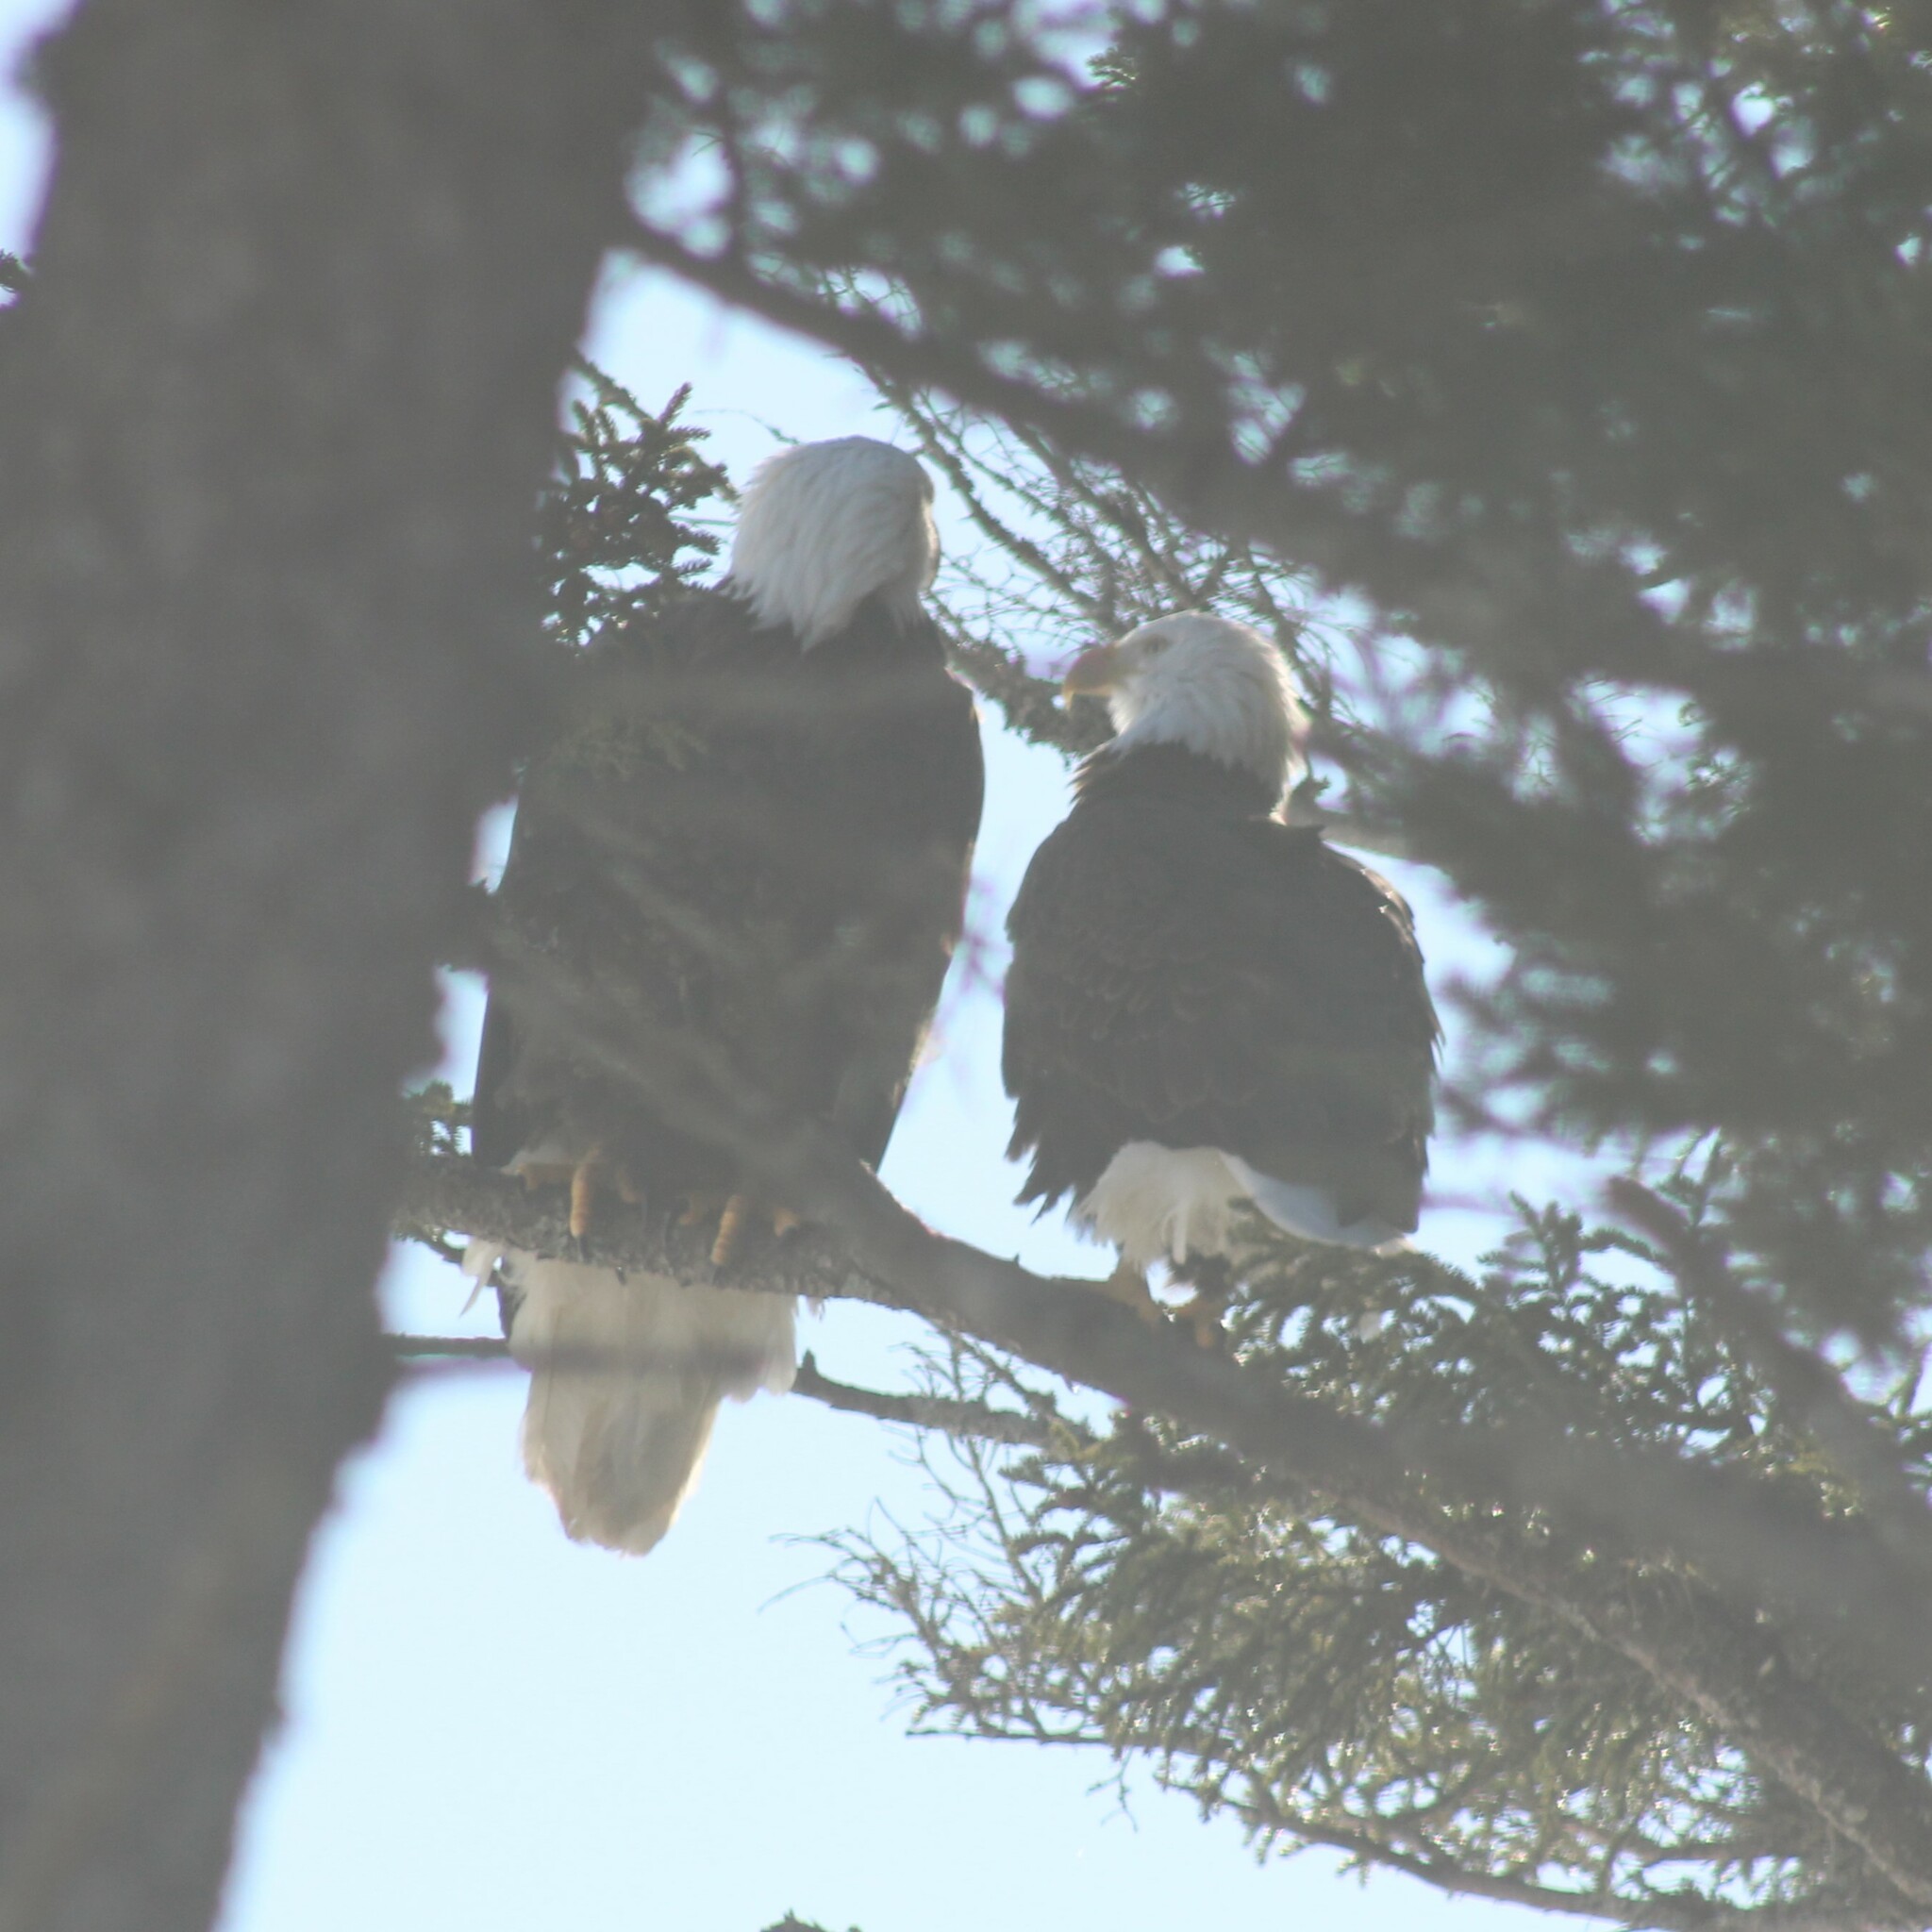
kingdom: Animalia
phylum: Chordata
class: Aves
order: Accipitriformes
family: Accipitridae
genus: Haliaeetus
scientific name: Haliaeetus leucocephalus
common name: Bald eagle
